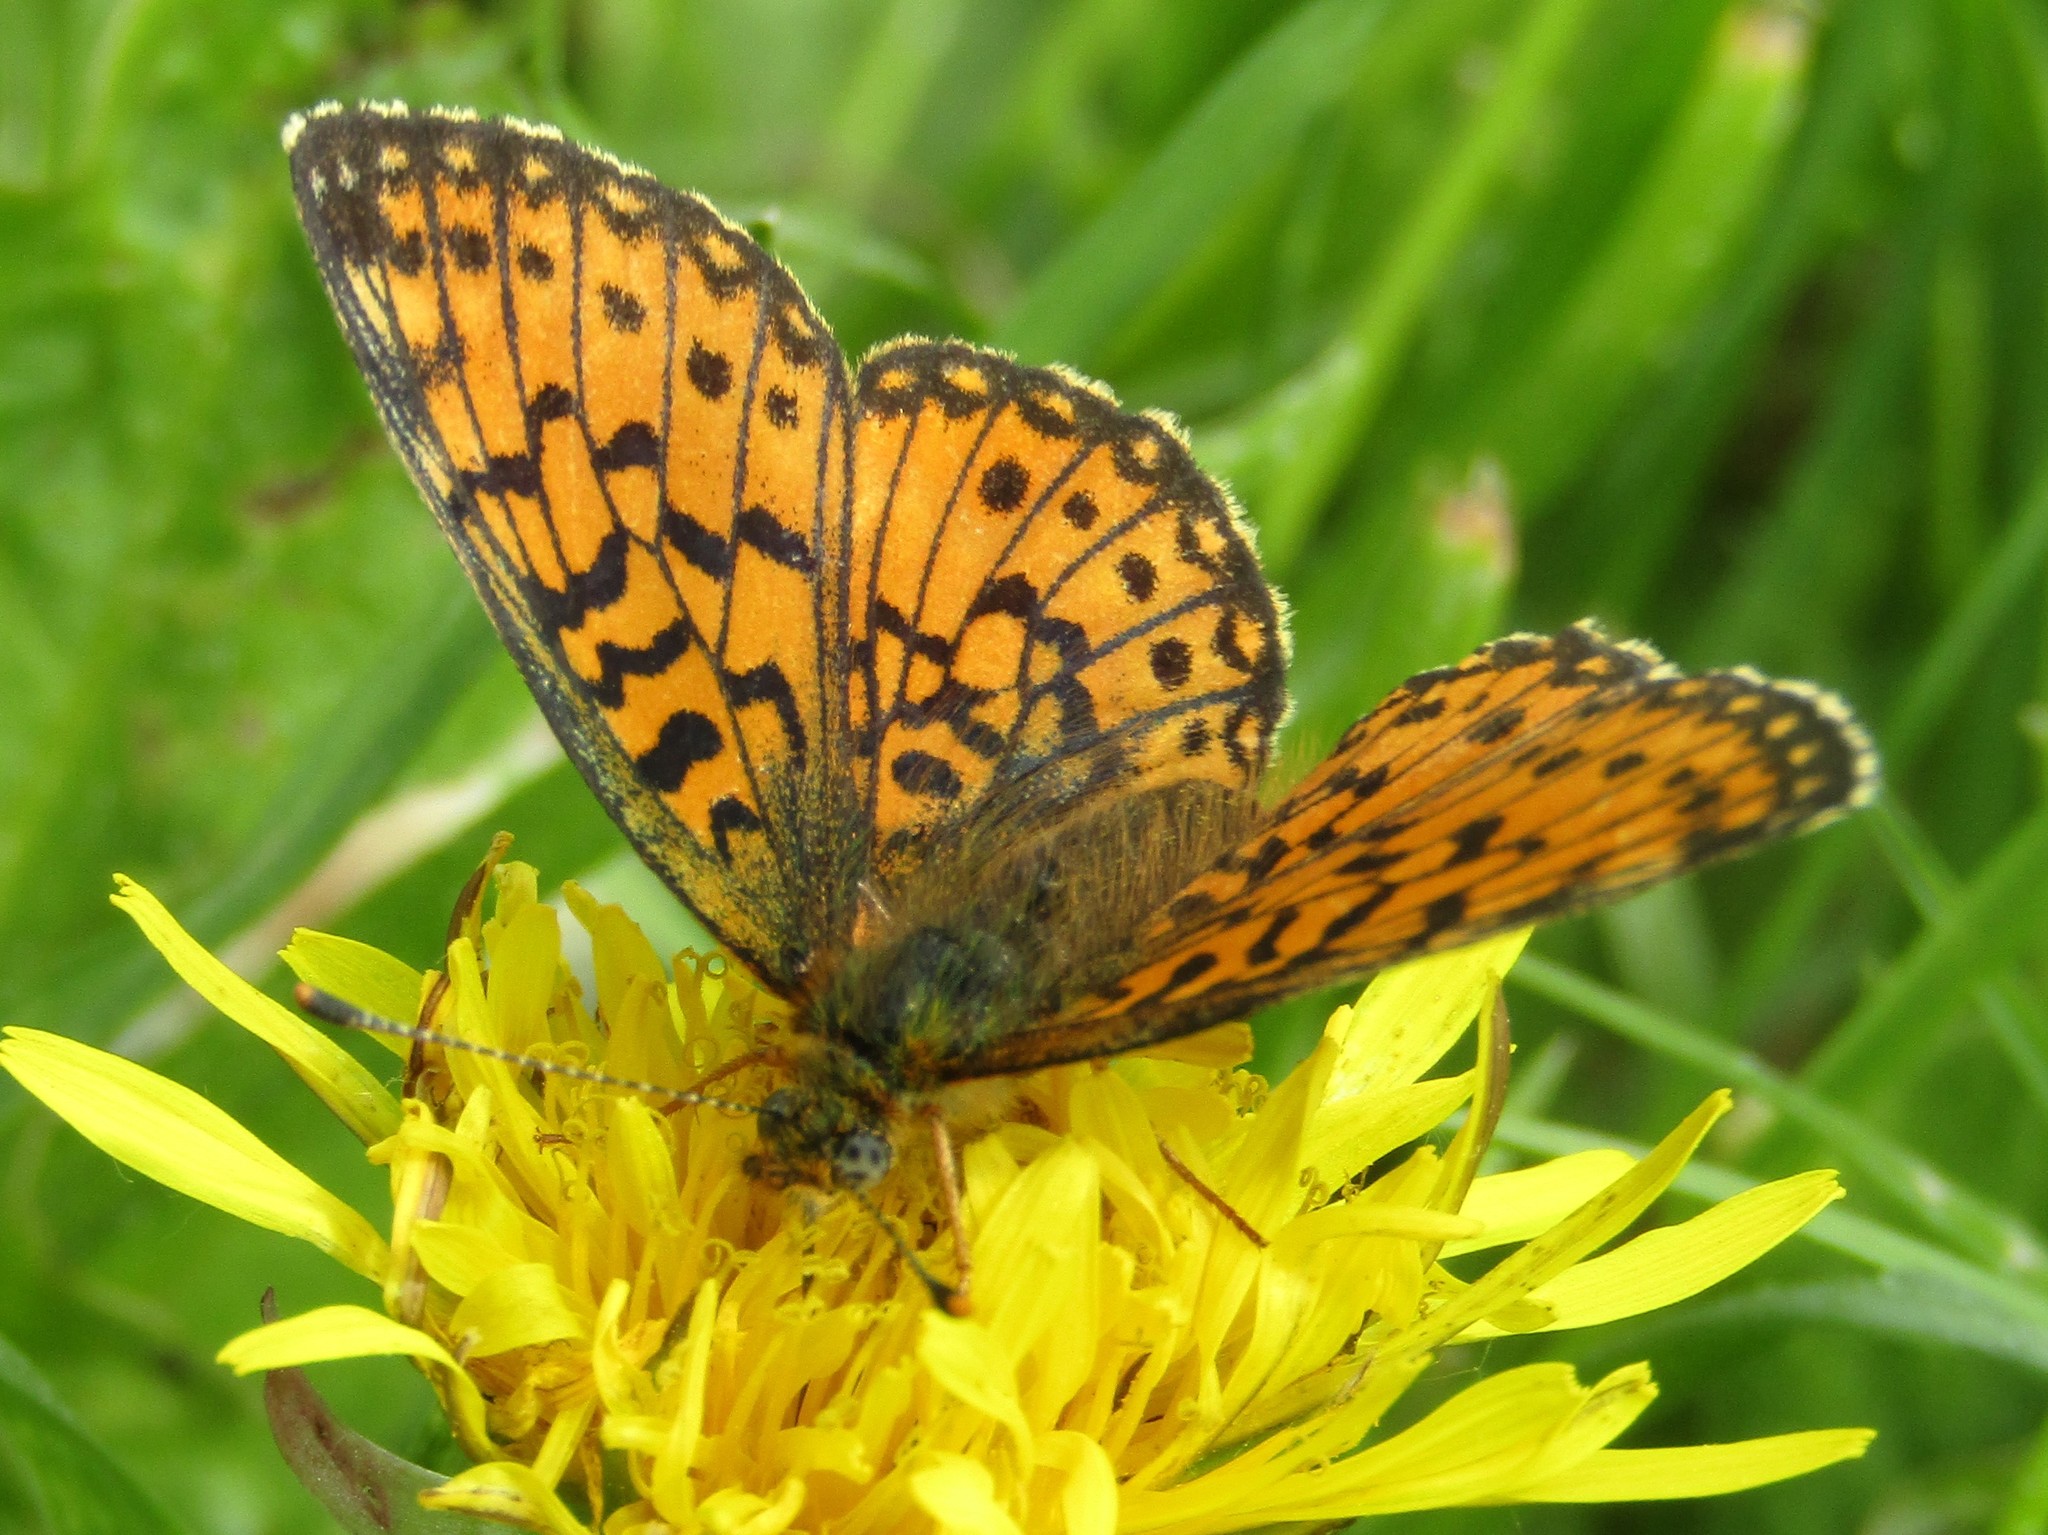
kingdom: Animalia
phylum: Arthropoda
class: Insecta
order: Lepidoptera
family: Nymphalidae
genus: Boloria
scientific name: Boloria selene
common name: Small pearl-bordered fritillary
